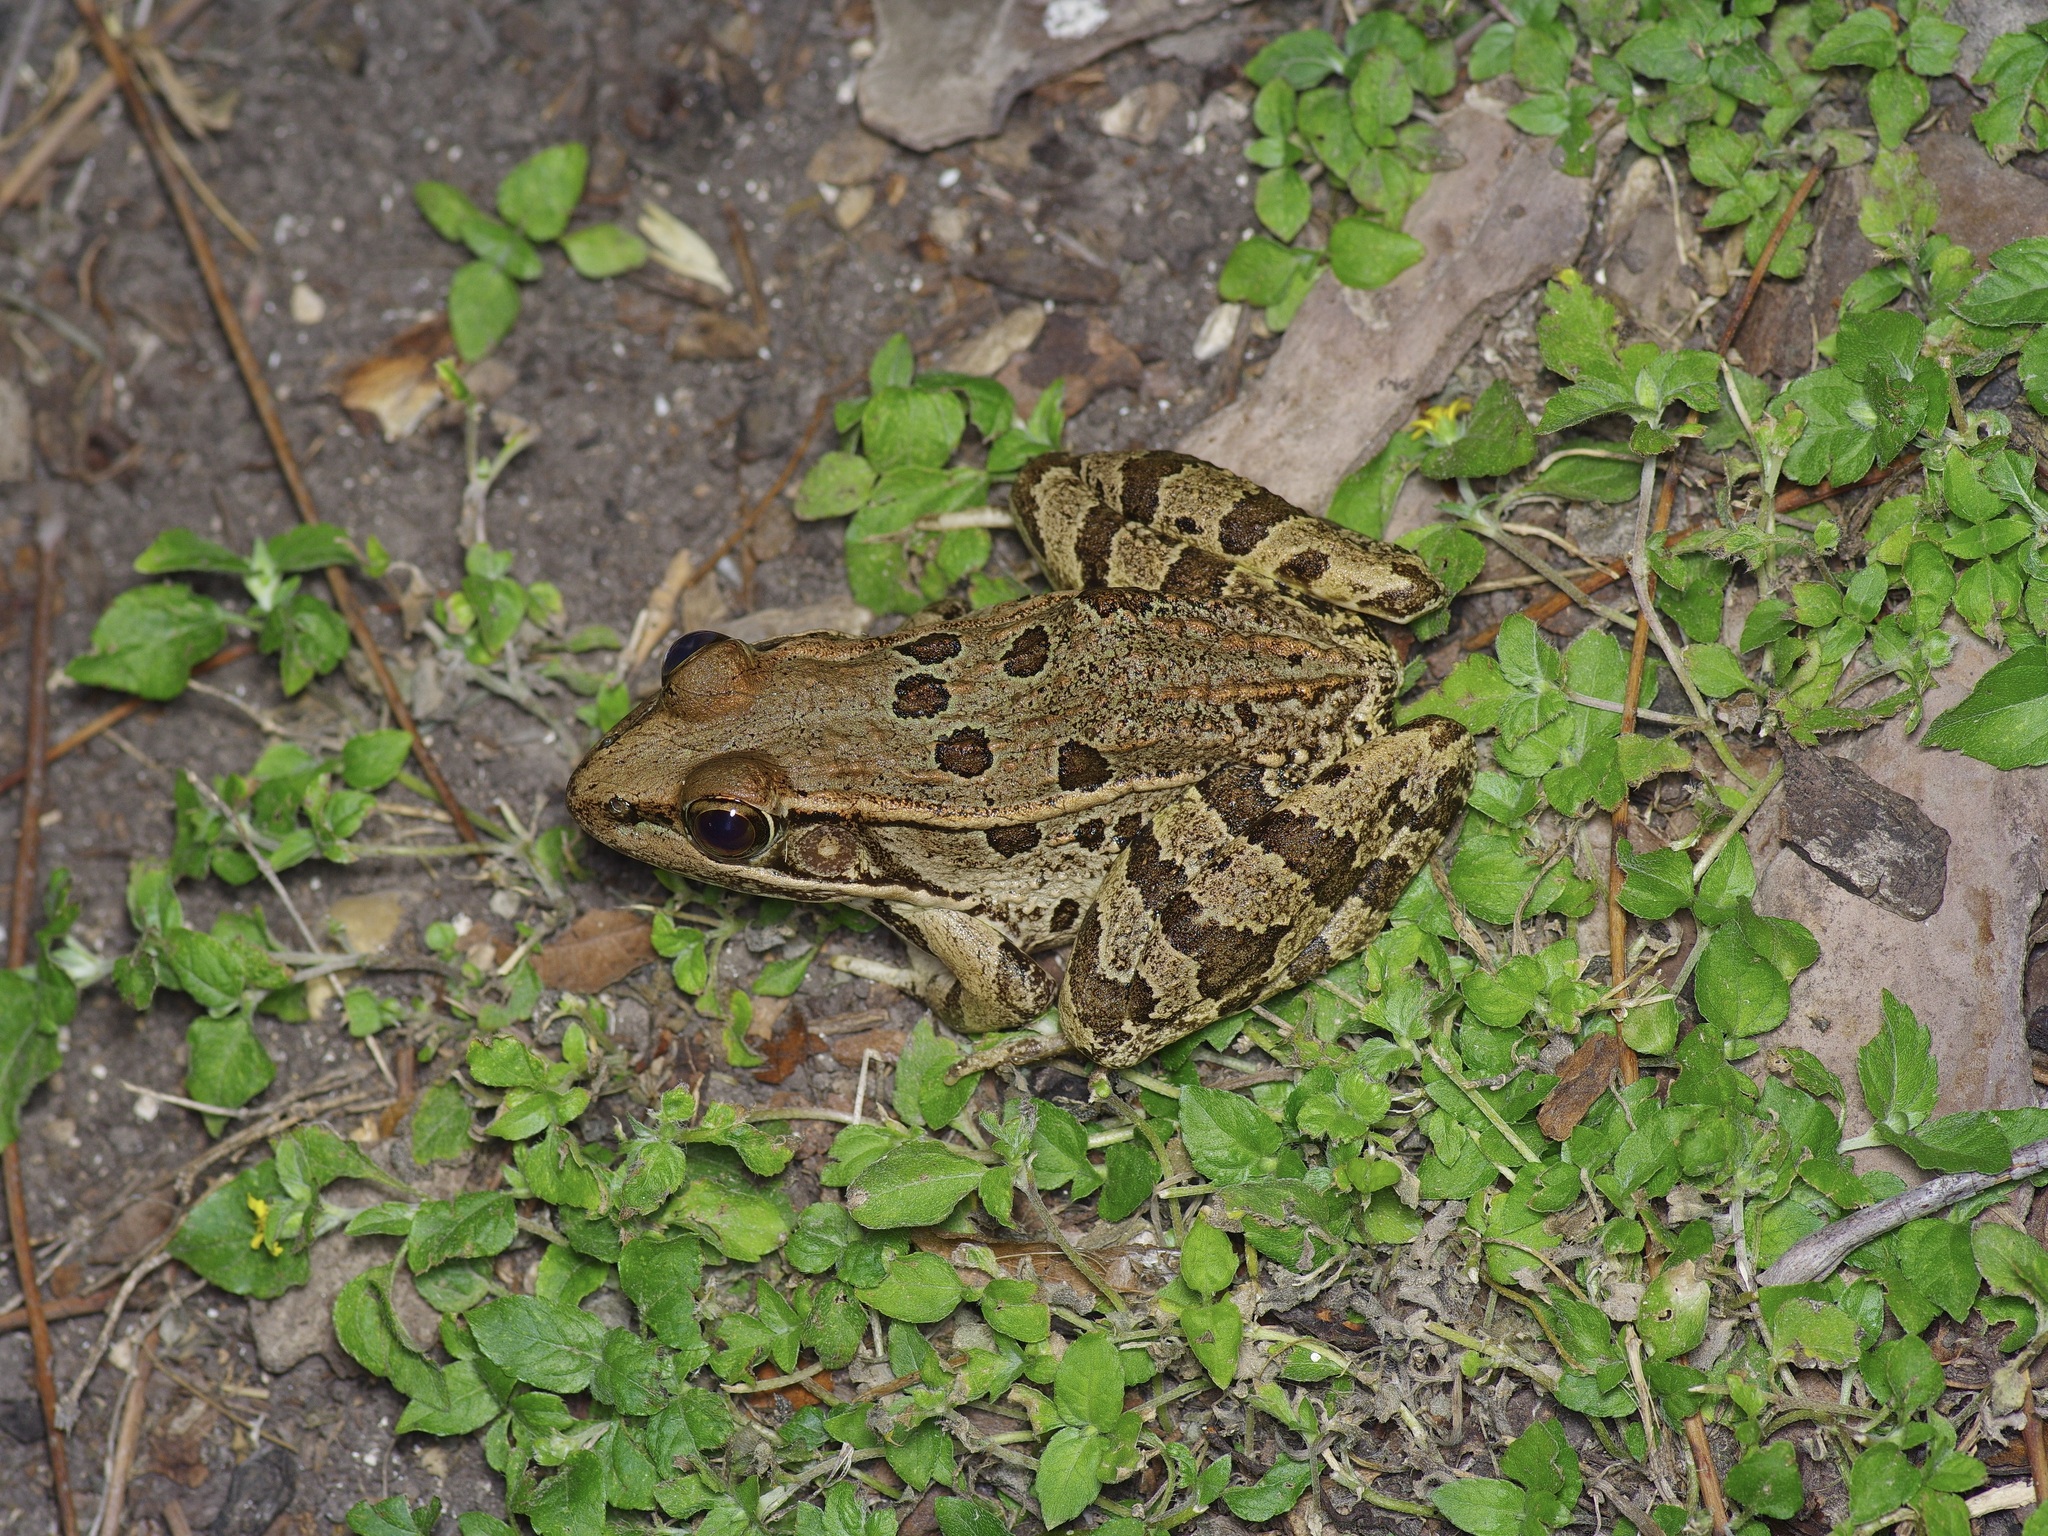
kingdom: Animalia
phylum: Chordata
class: Amphibia
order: Anura
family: Ranidae
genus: Lithobates
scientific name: Lithobates berlandieri
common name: Rio grande leopard frog
